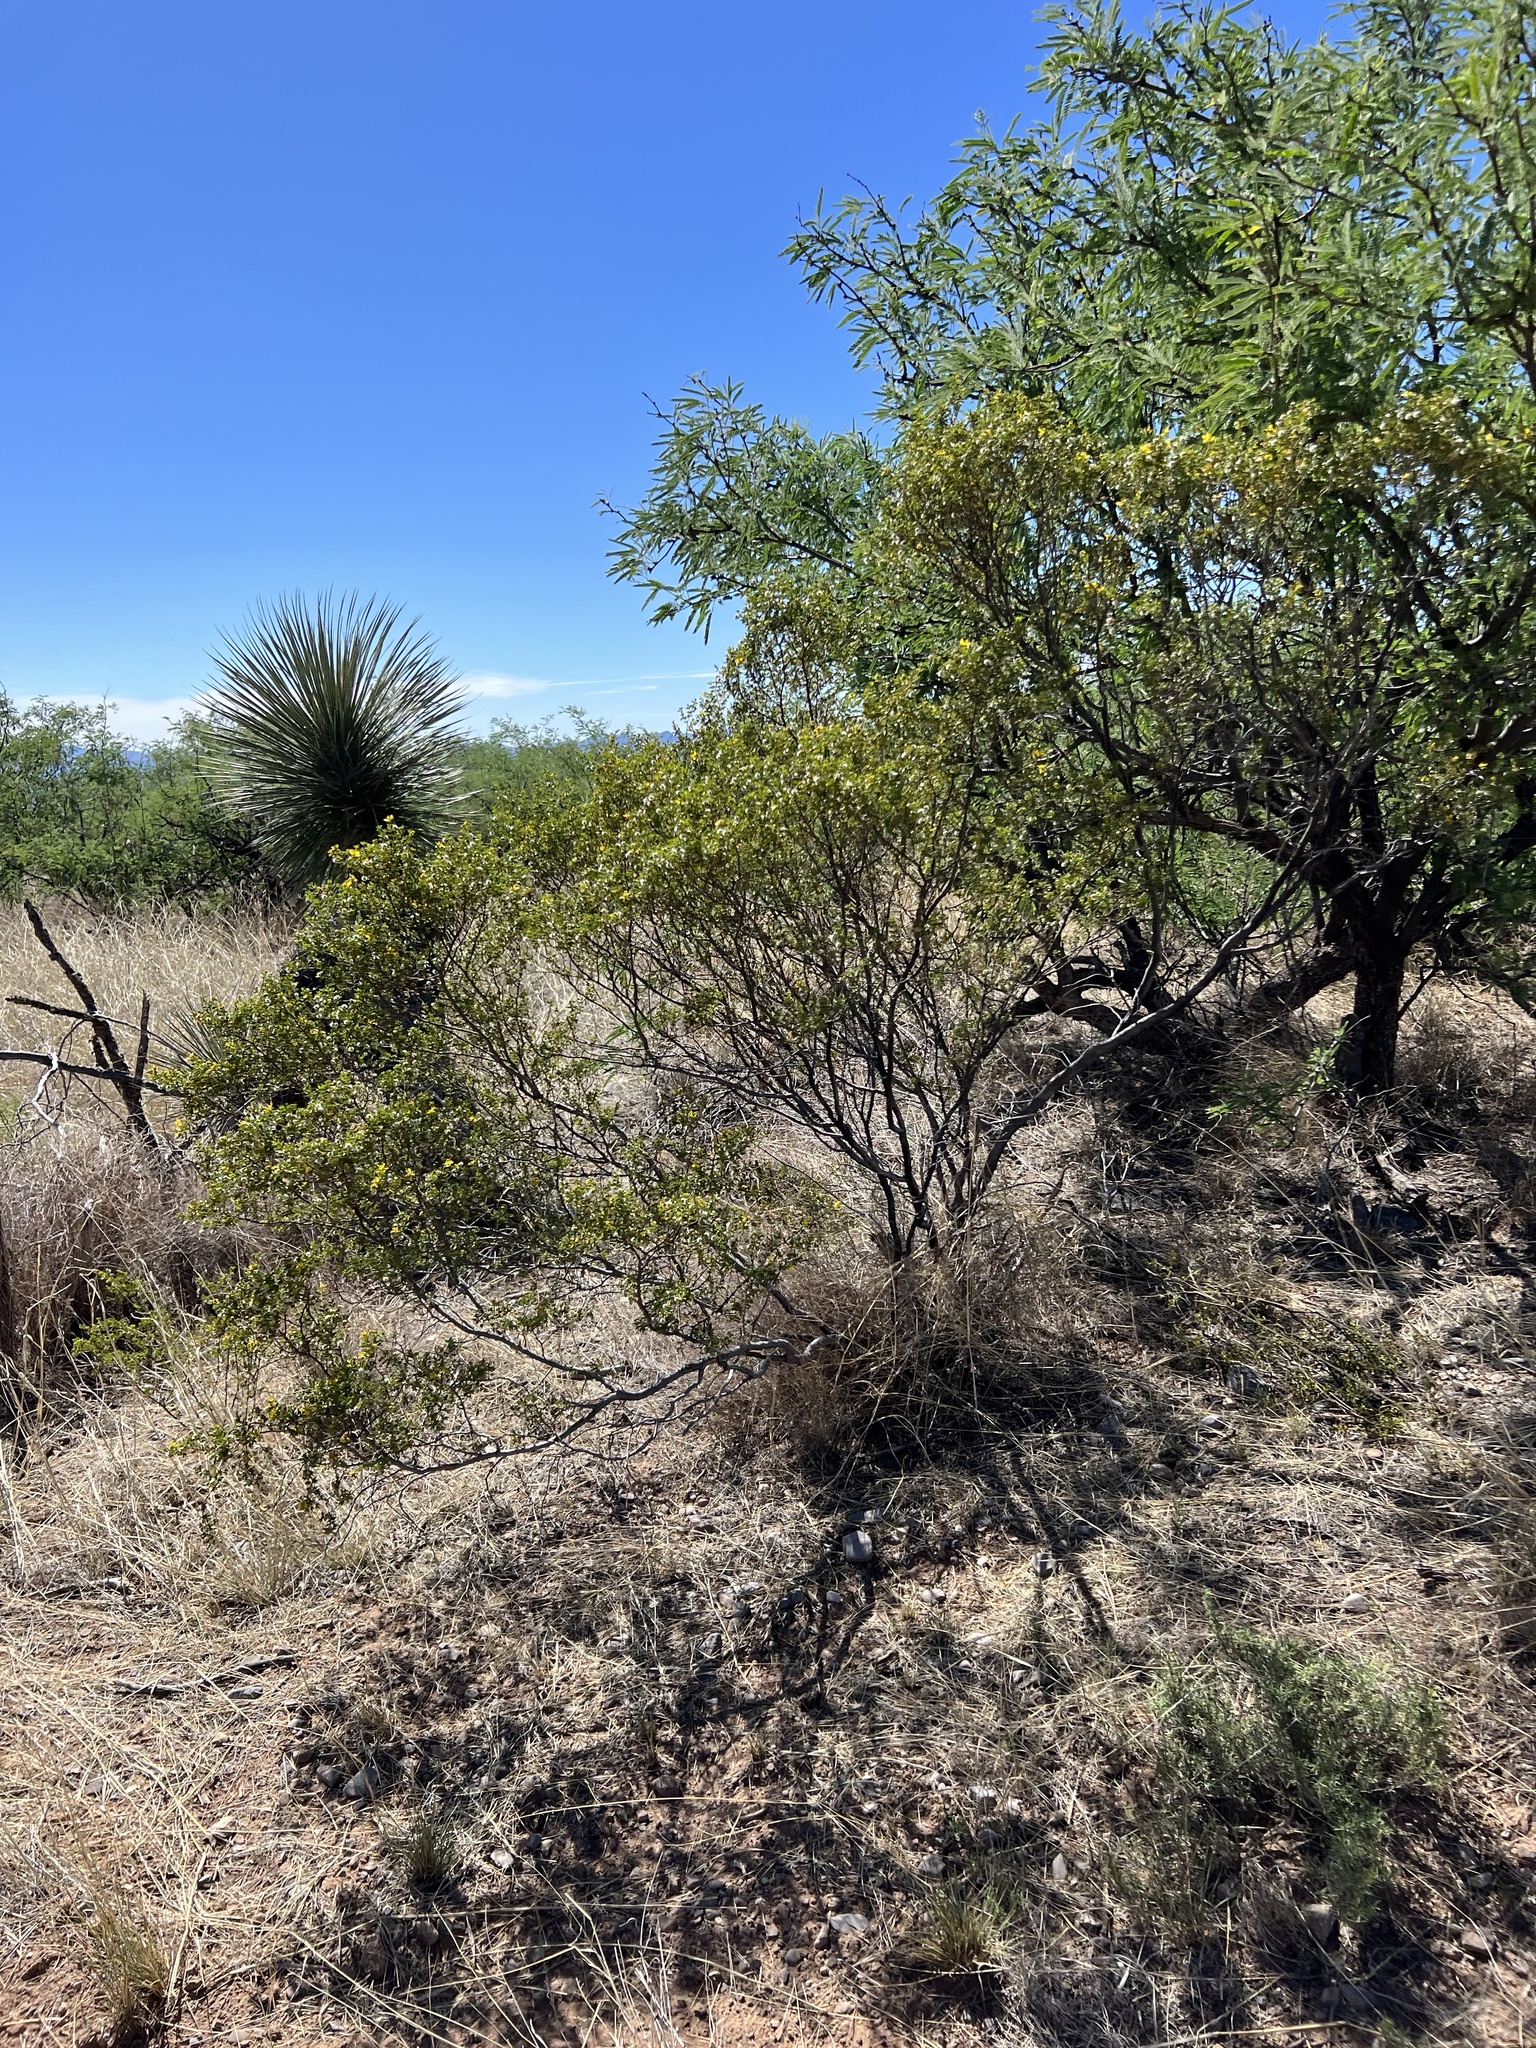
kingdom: Plantae
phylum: Tracheophyta
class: Magnoliopsida
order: Zygophyllales
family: Zygophyllaceae
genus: Larrea
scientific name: Larrea tridentata
